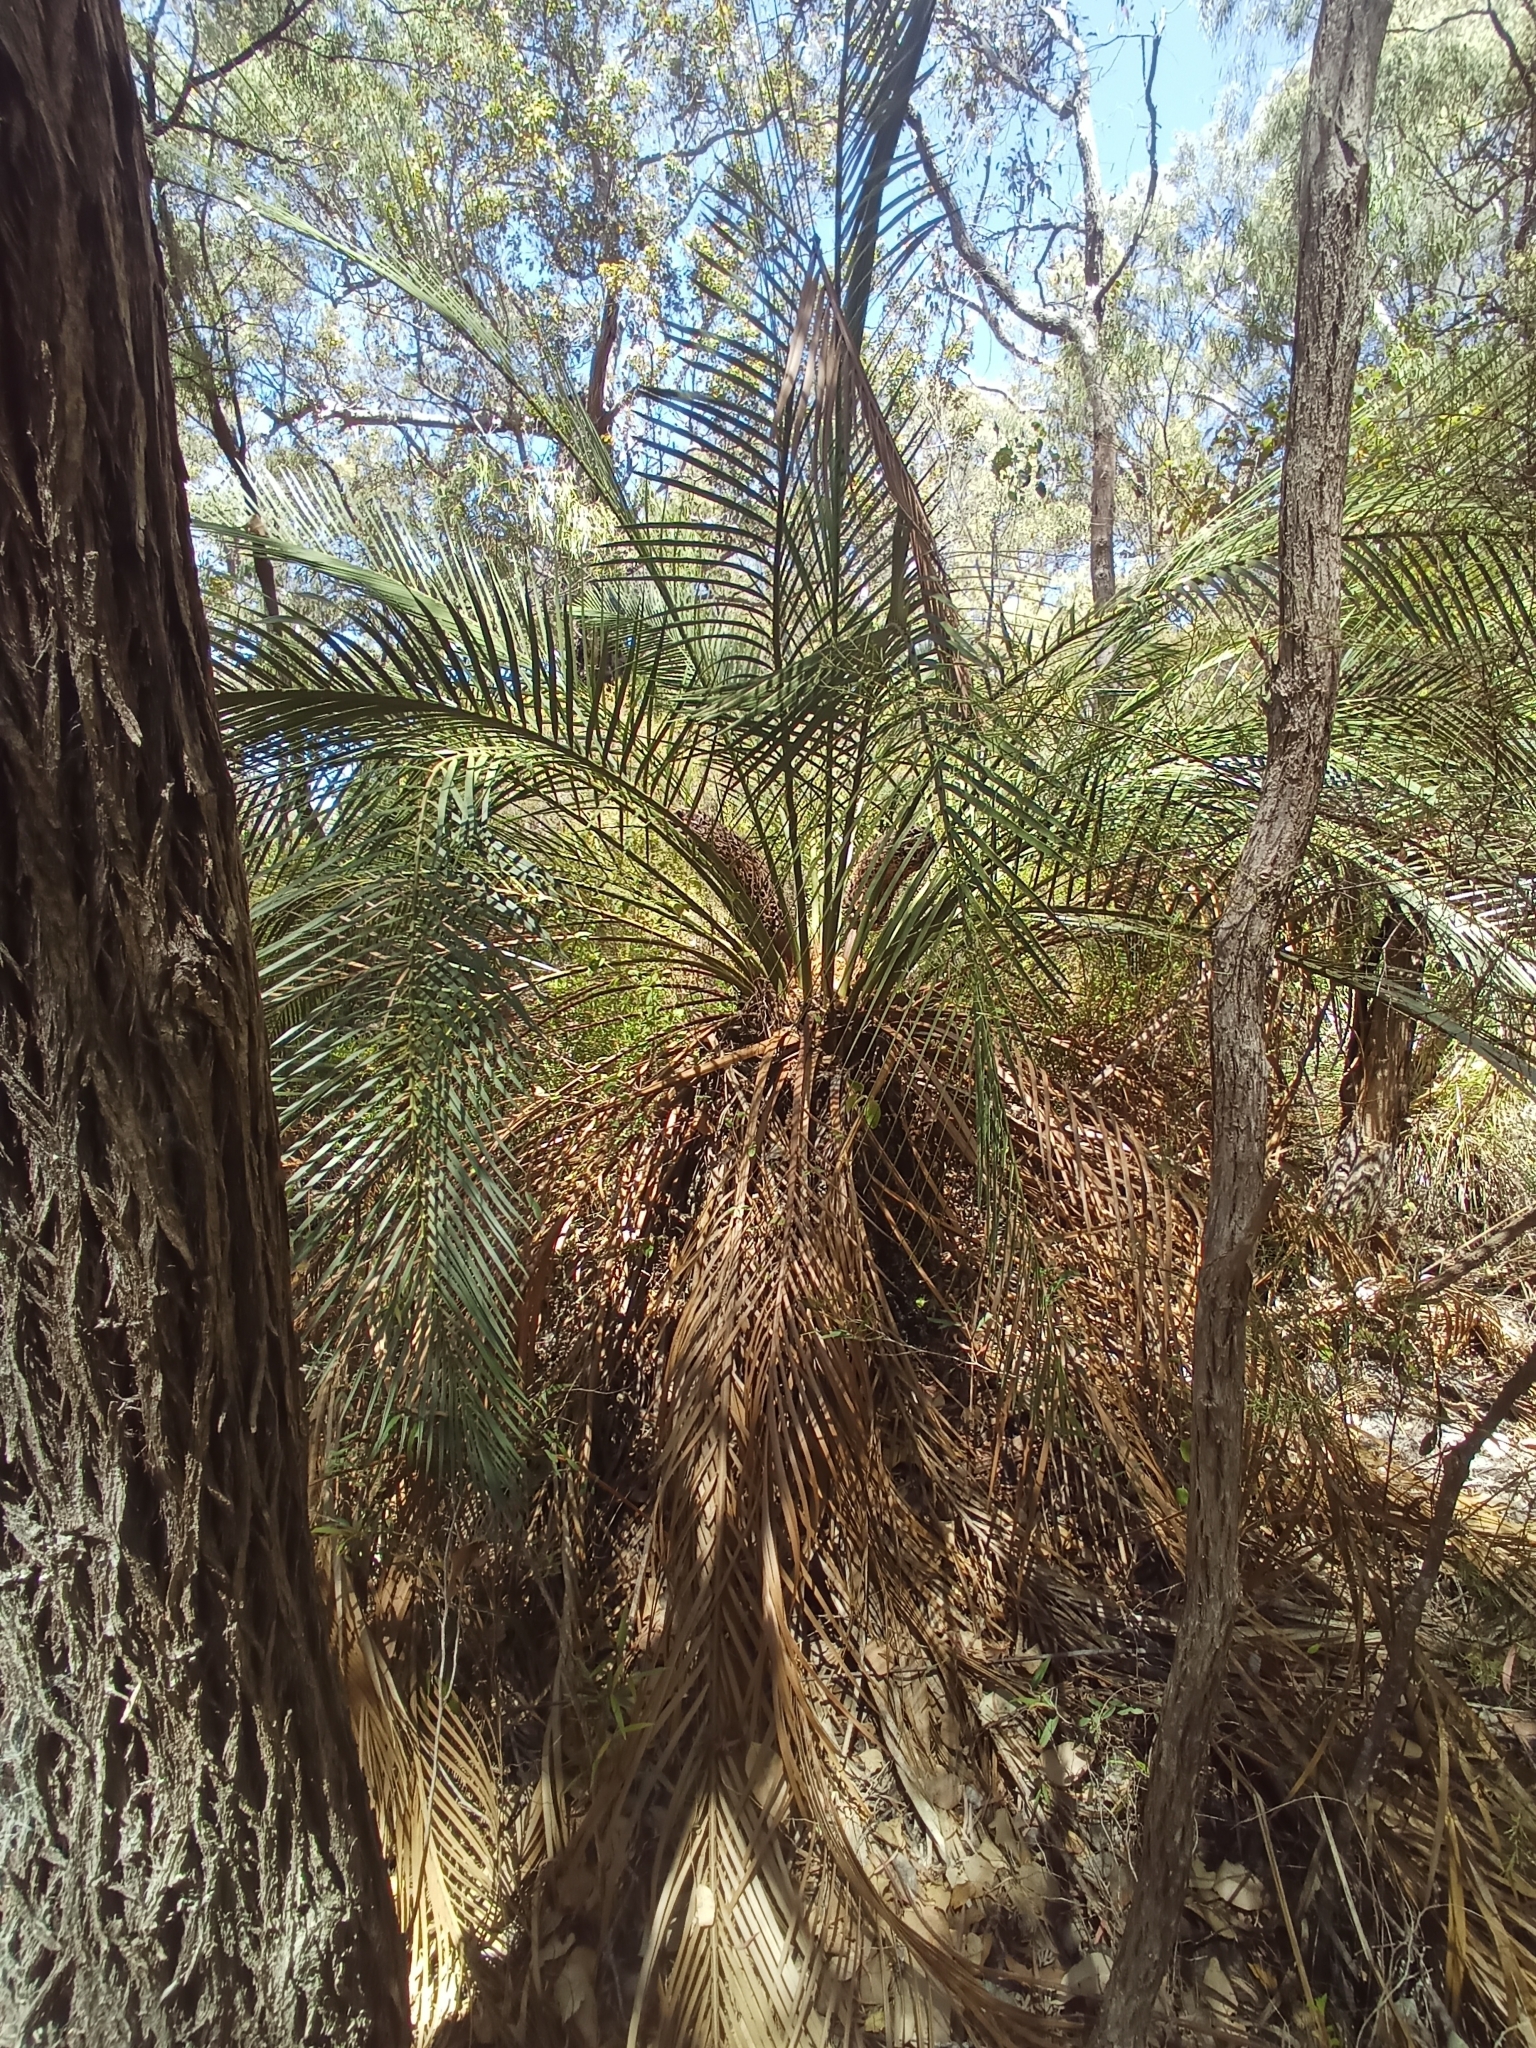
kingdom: Plantae
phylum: Tracheophyta
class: Cycadopsida
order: Cycadales
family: Zamiaceae
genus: Macrozamia
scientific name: Macrozamia riedlei
